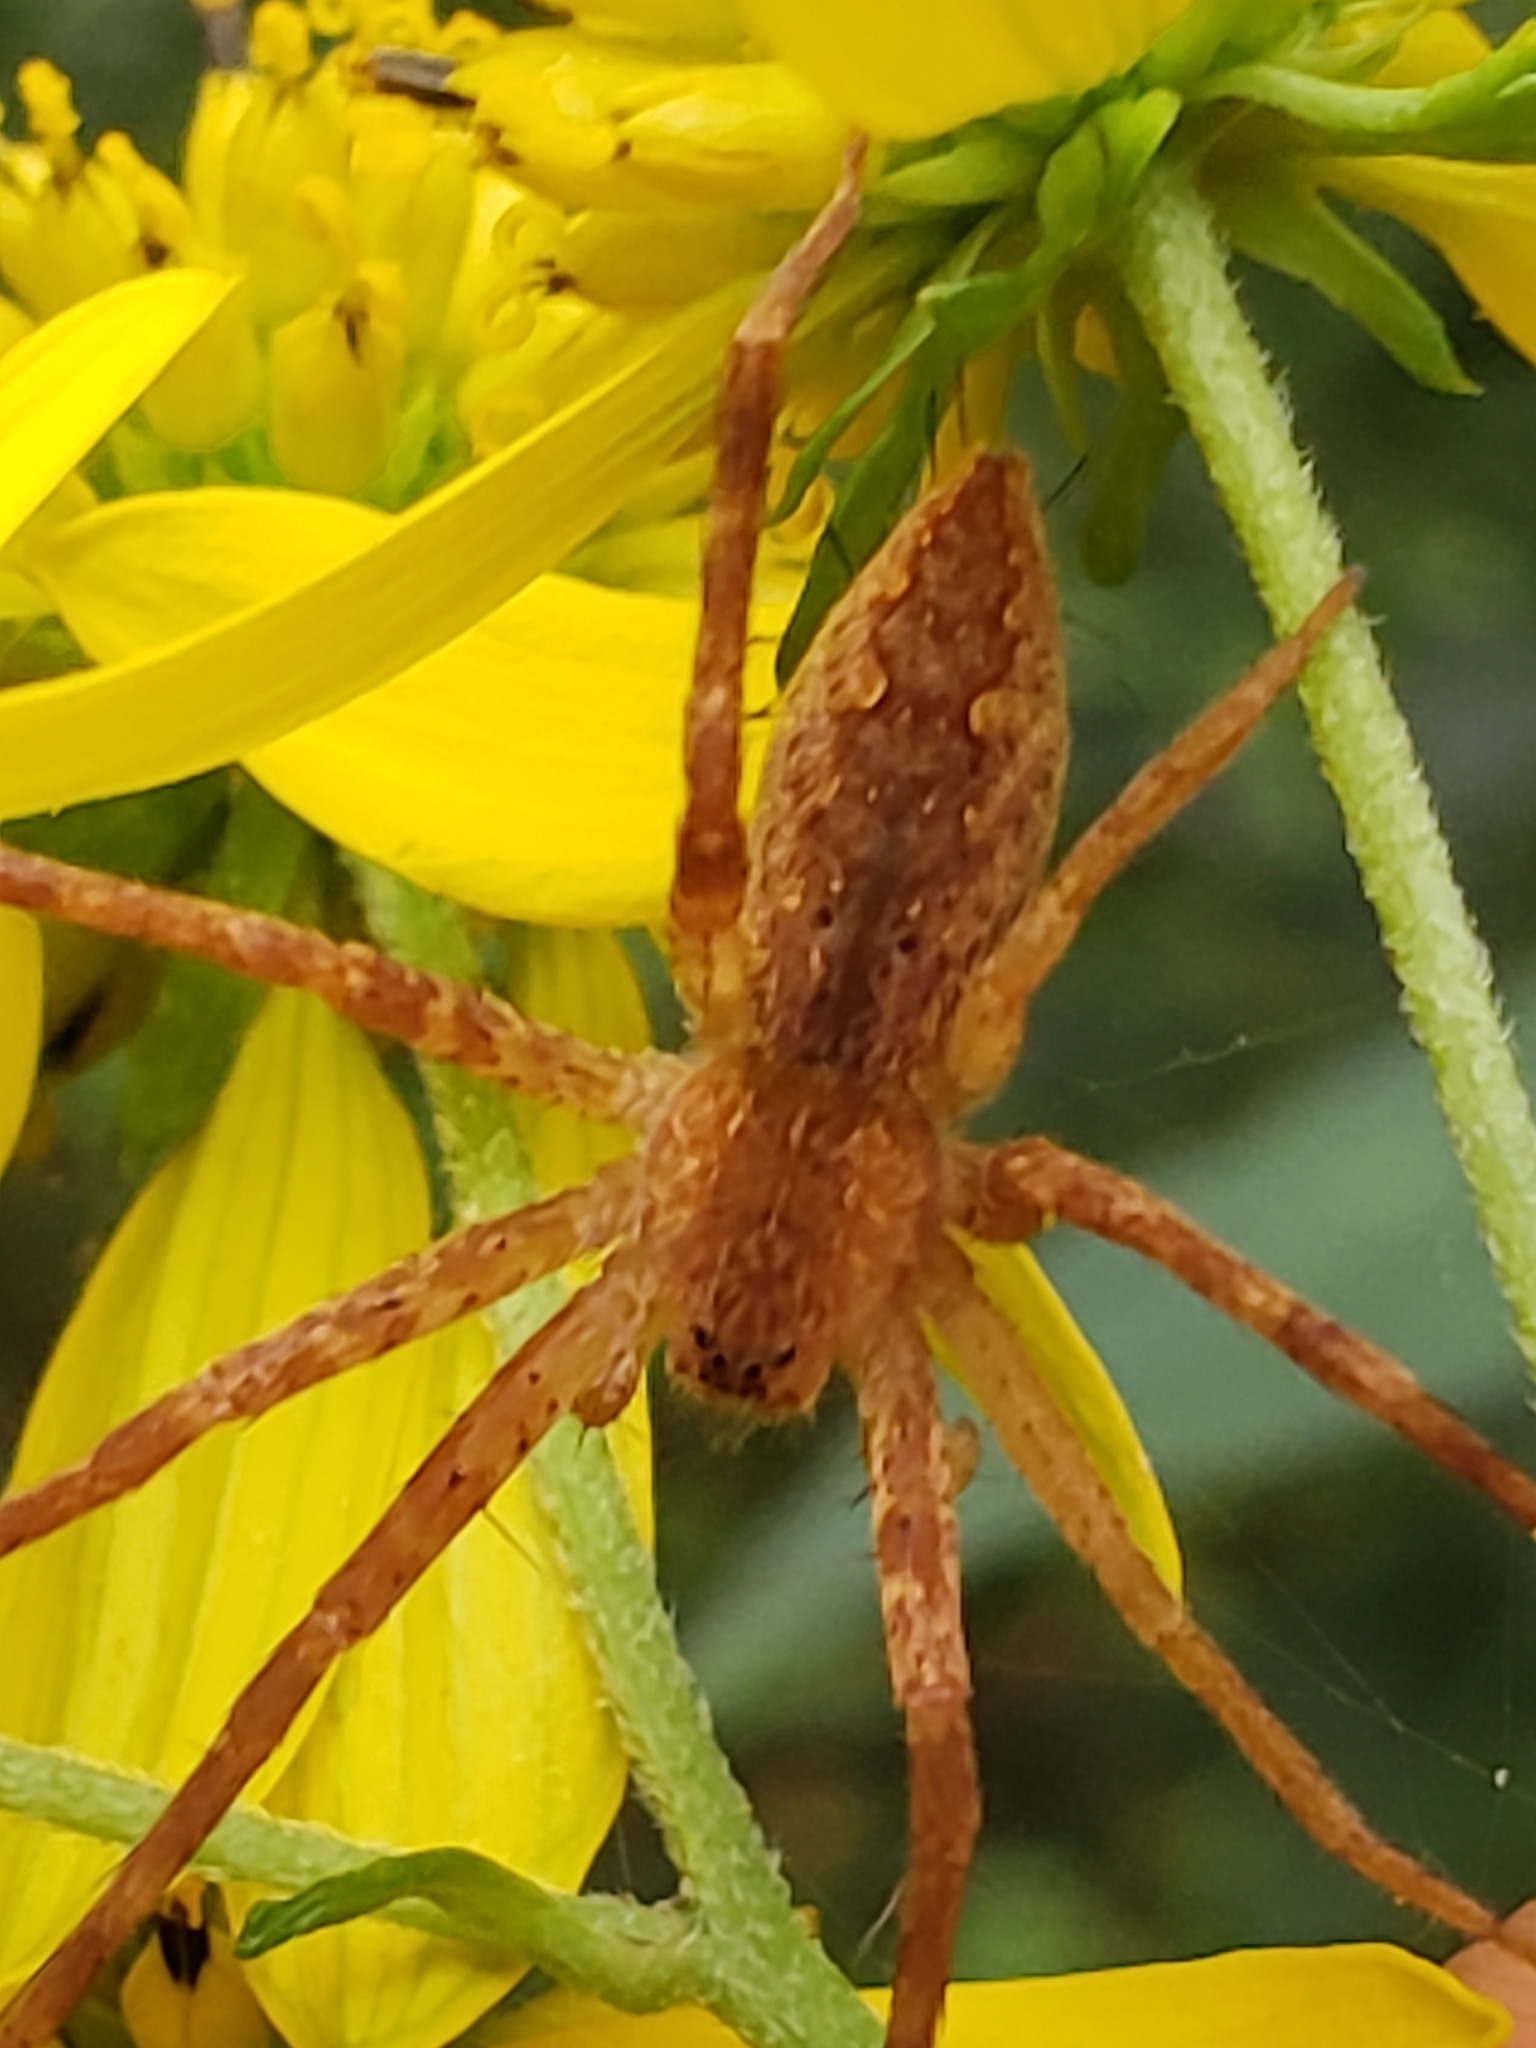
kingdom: Animalia
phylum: Arthropoda
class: Arachnida
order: Araneae
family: Pisauridae
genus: Pisaurina
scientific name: Pisaurina mira
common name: American nursery web spider
